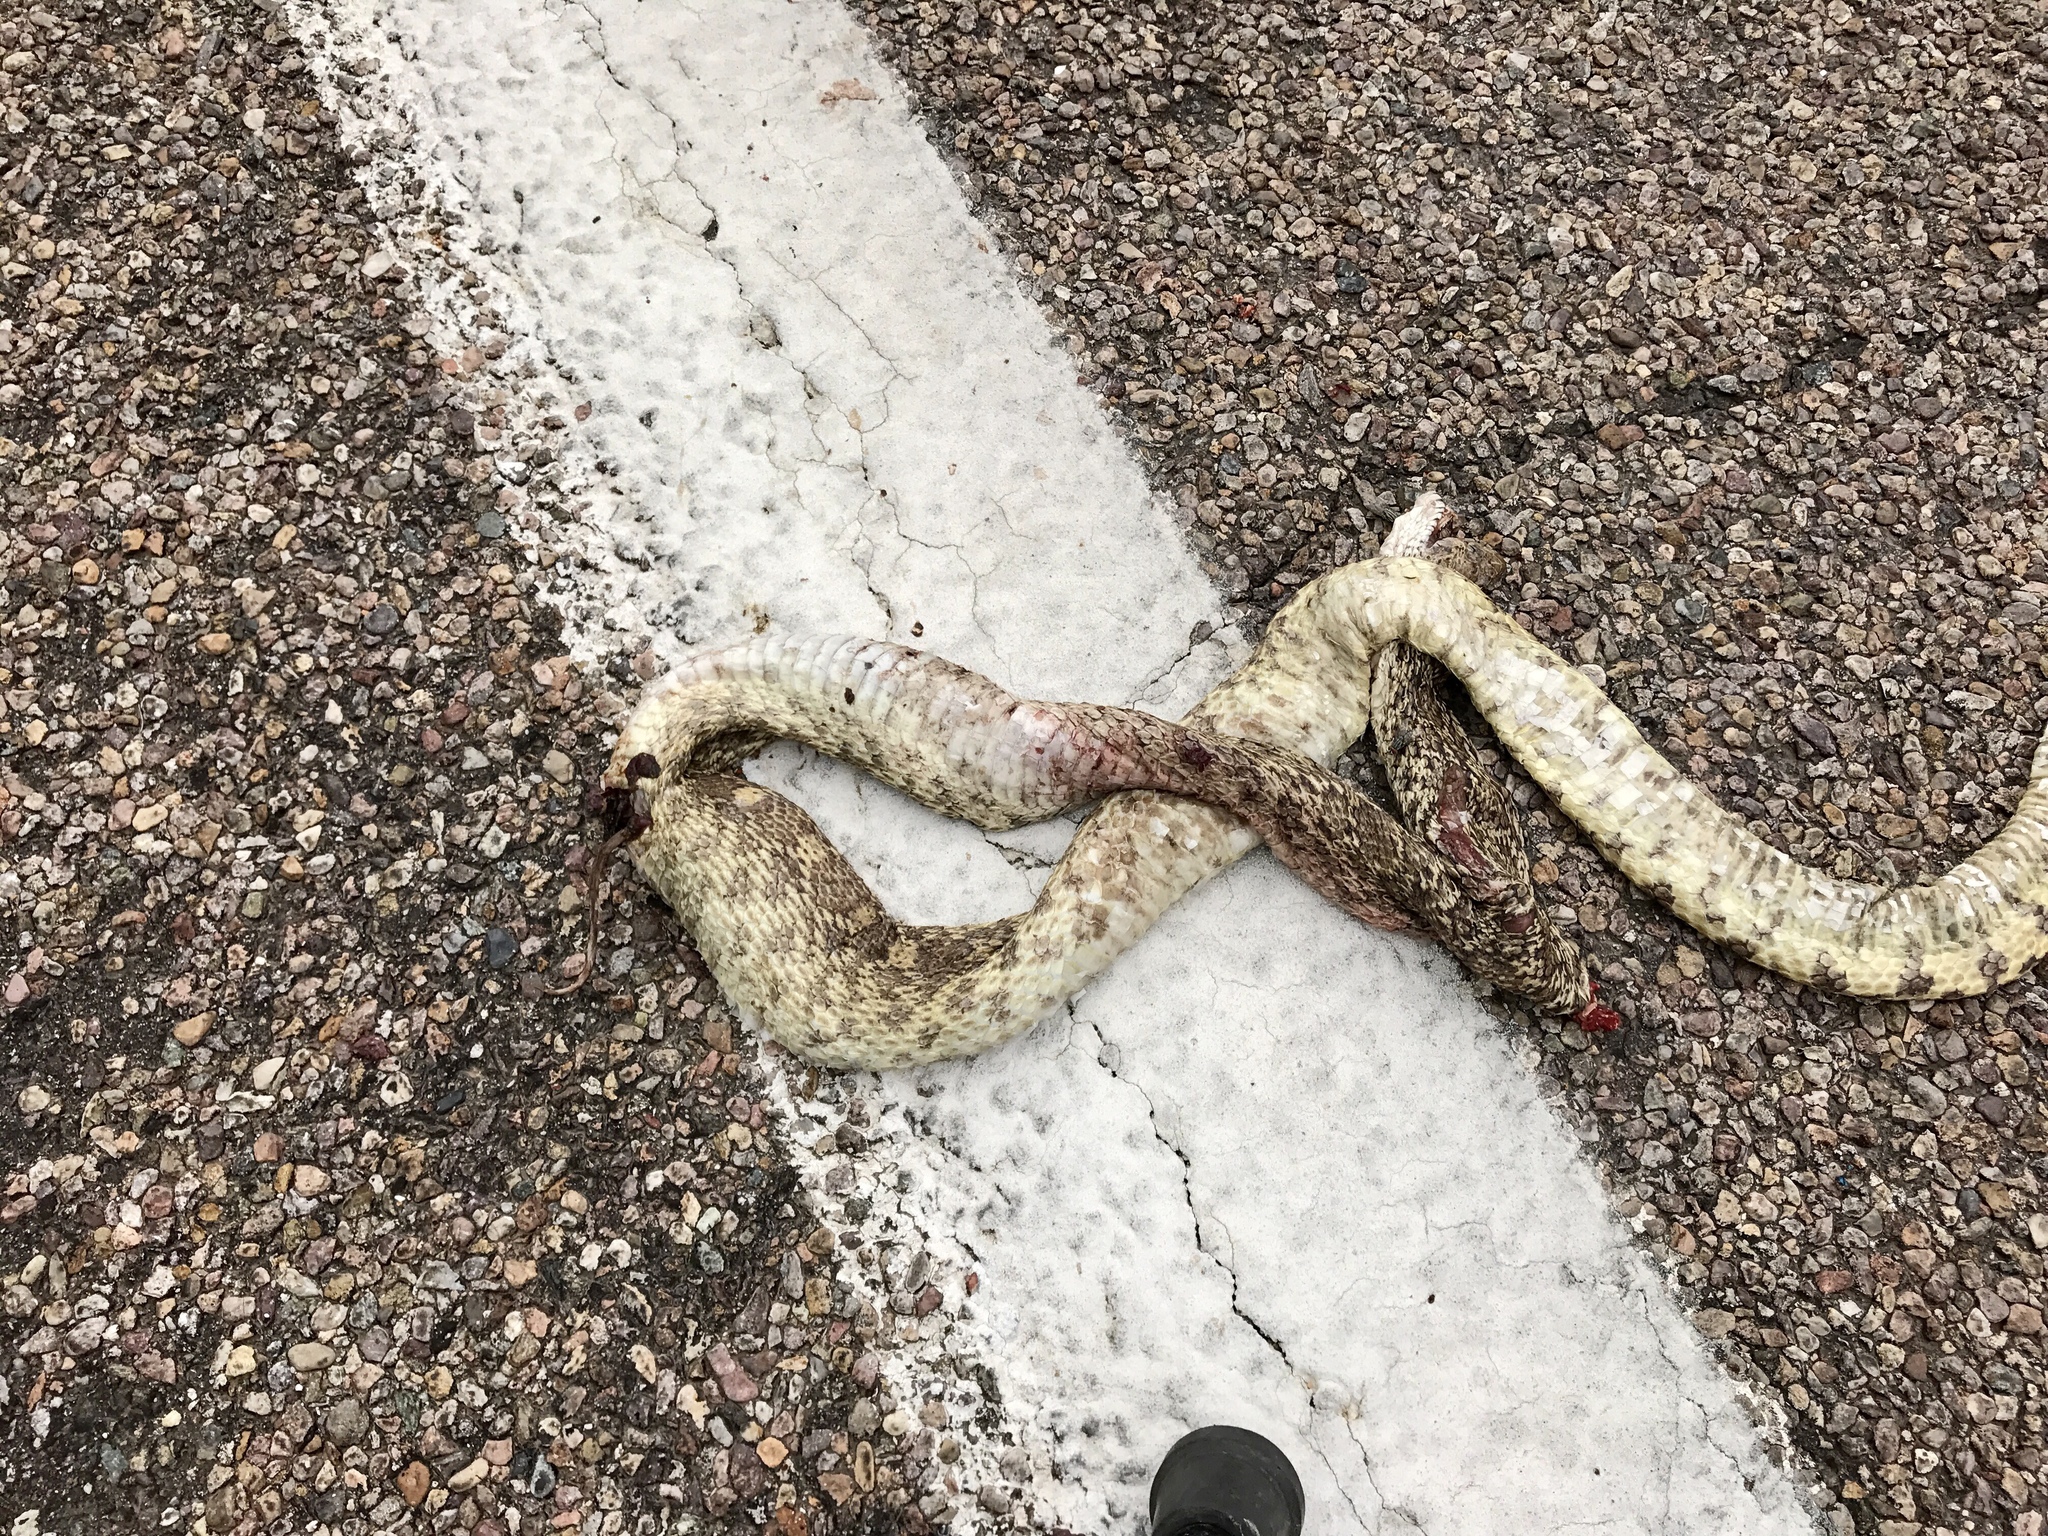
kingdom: Animalia
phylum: Chordata
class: Squamata
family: Colubridae
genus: Pituophis
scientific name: Pituophis catenifer
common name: Gopher snake
